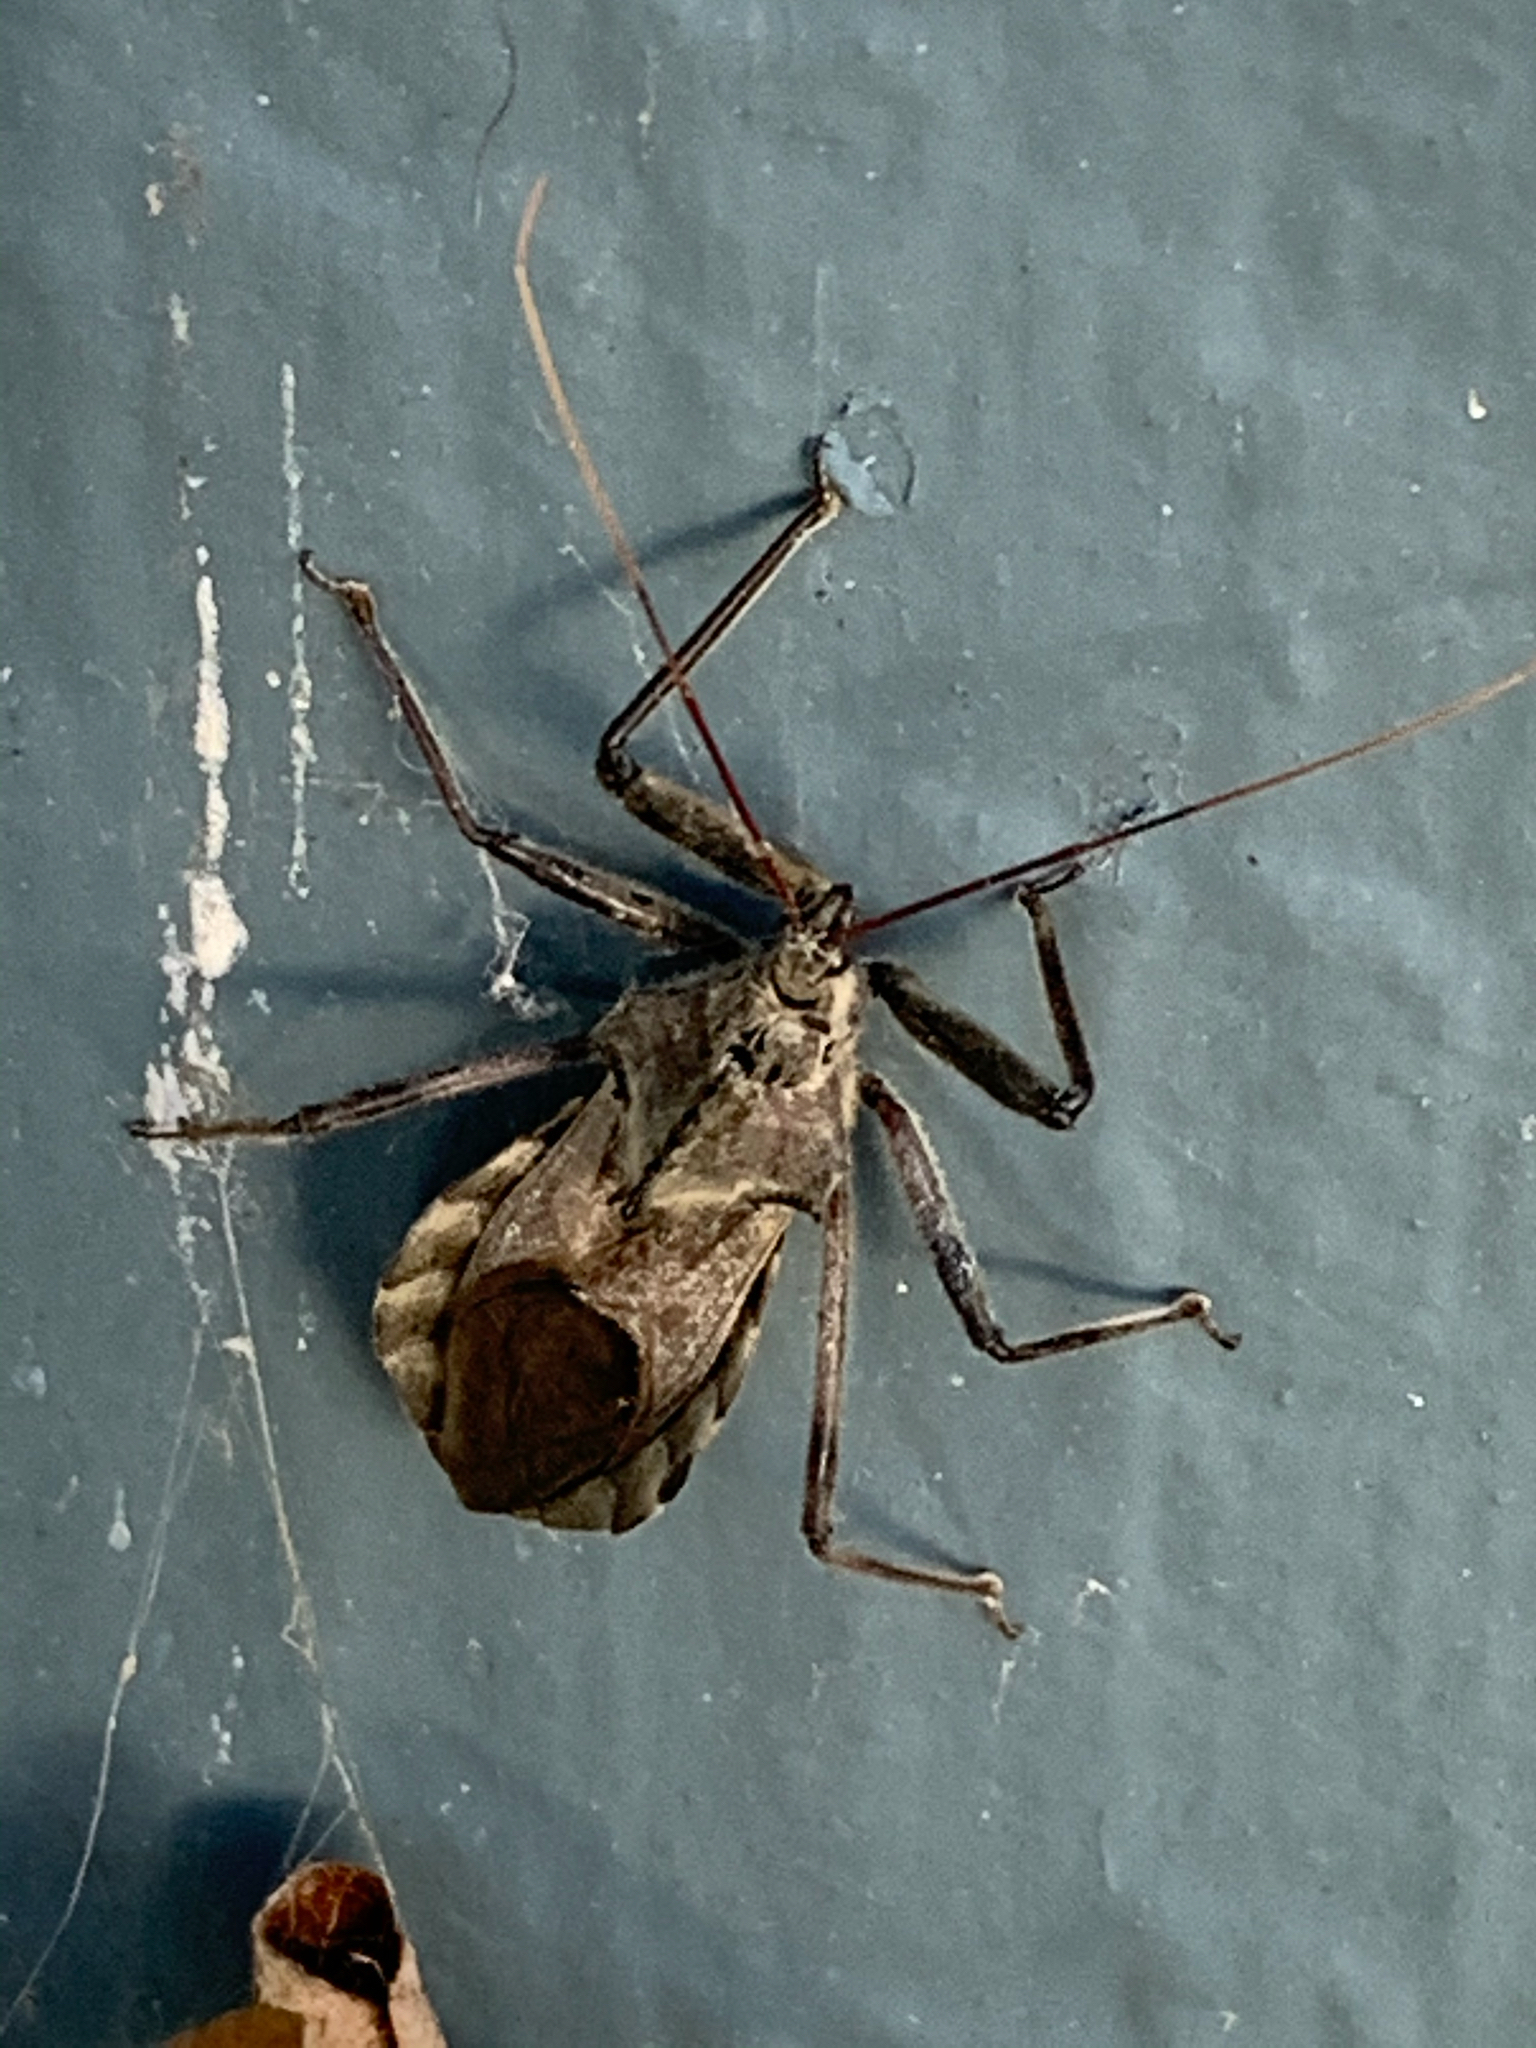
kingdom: Animalia
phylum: Arthropoda
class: Insecta
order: Hemiptera
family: Reduviidae
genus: Arilus
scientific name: Arilus cristatus
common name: North american wheel bug
